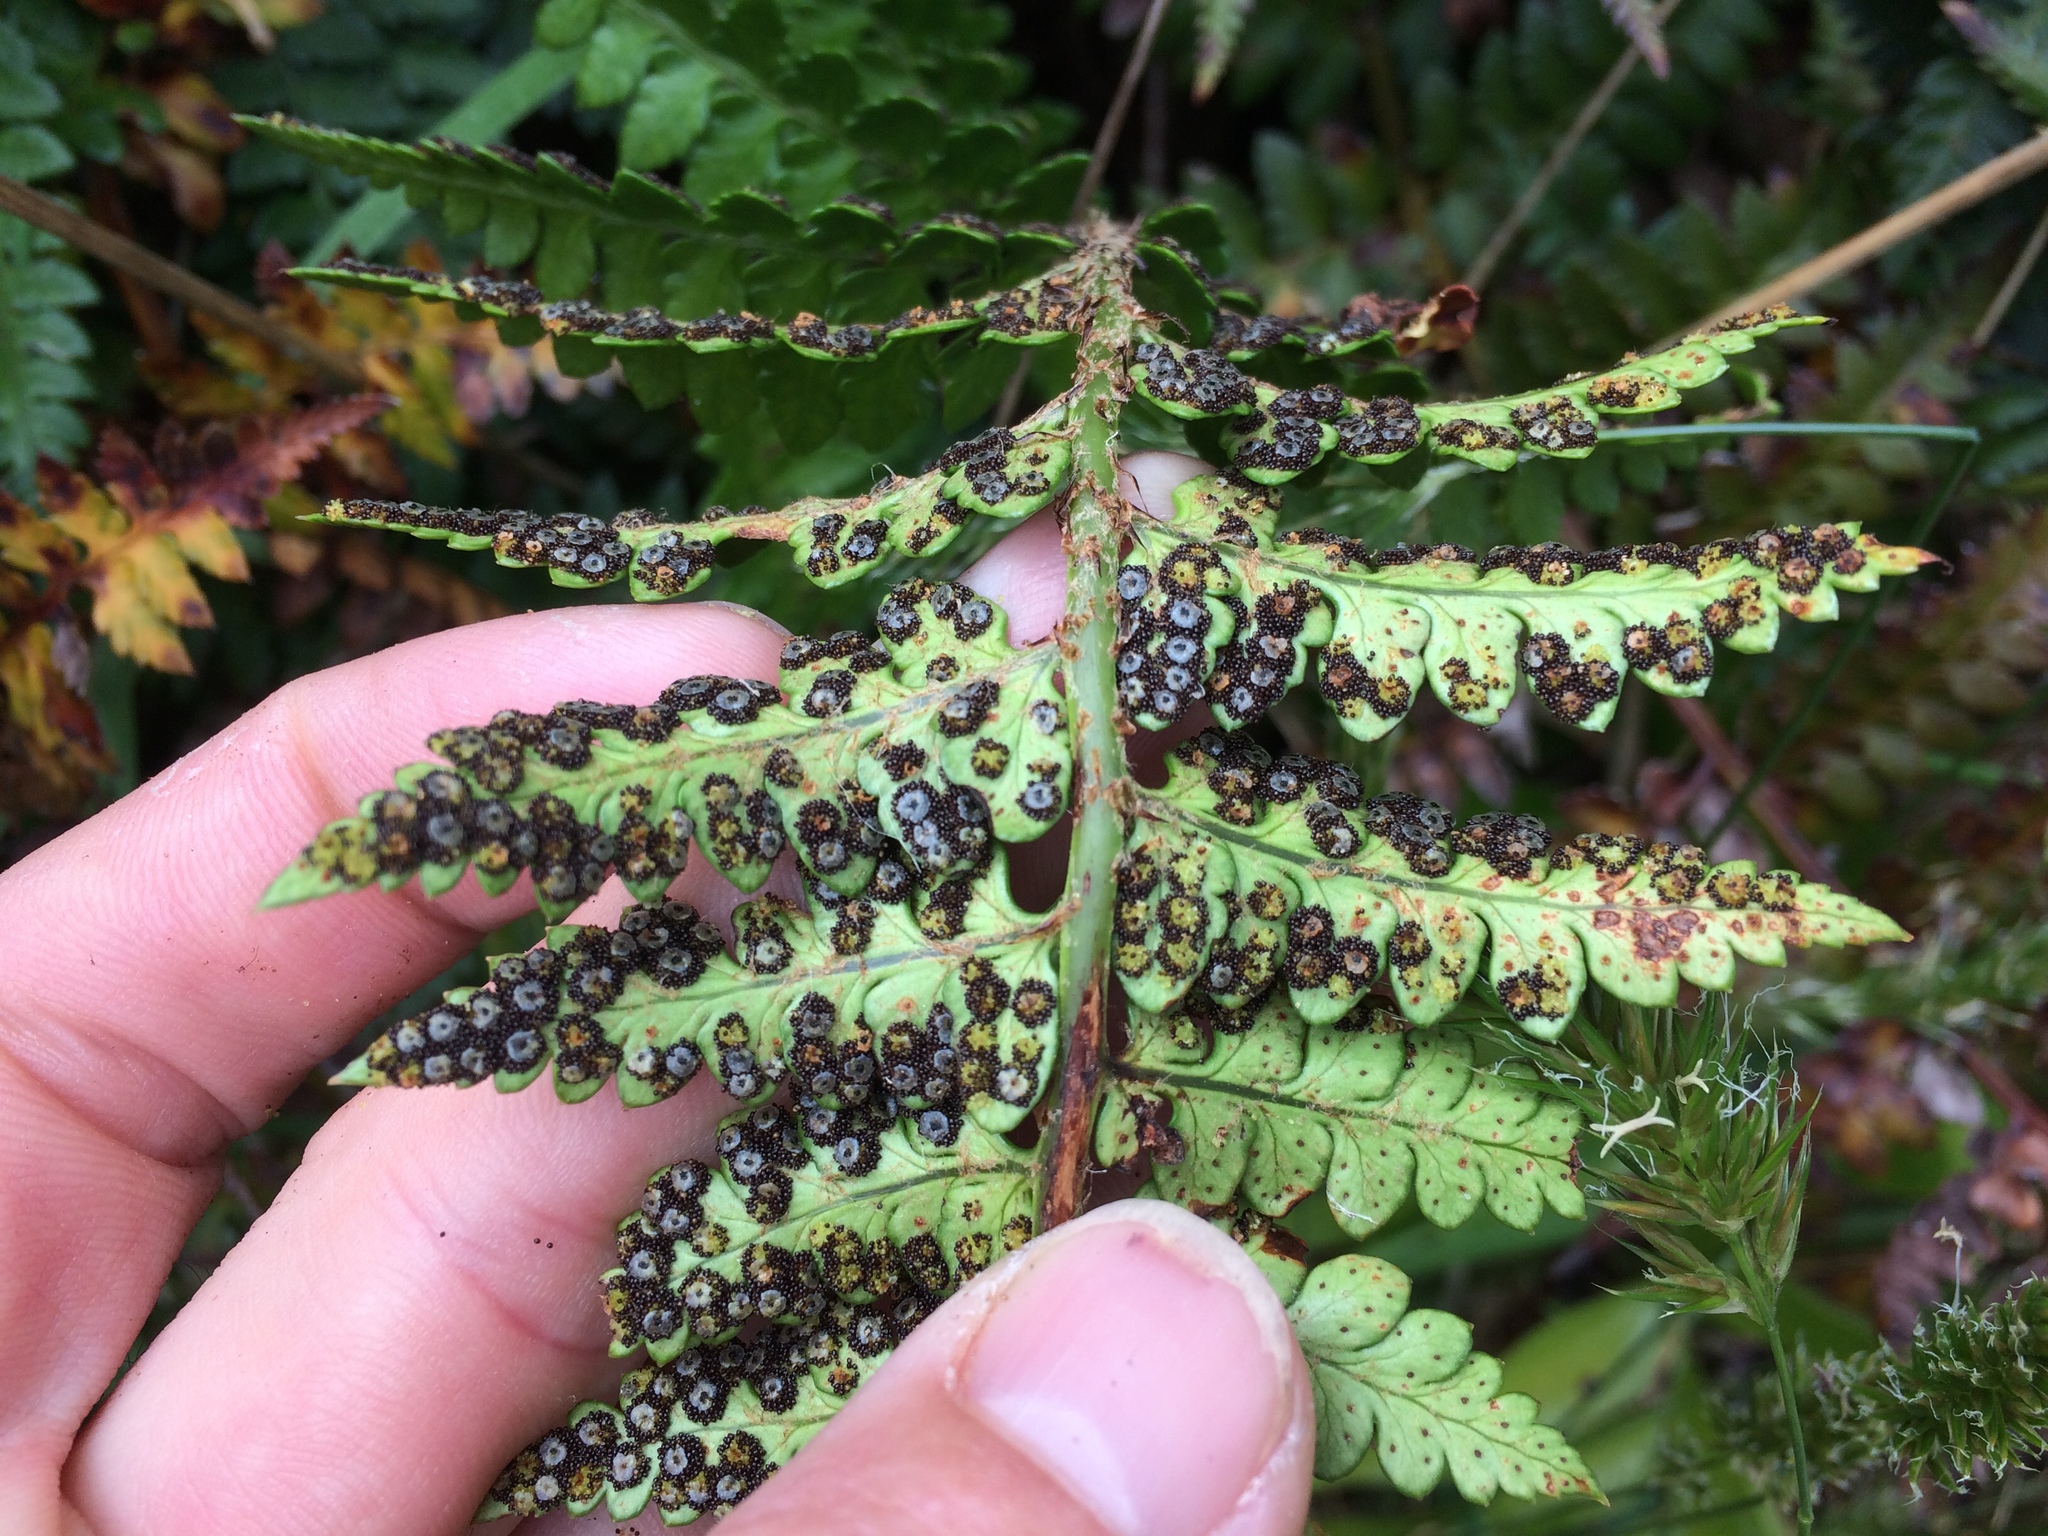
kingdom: Plantae
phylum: Tracheophyta
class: Polypodiopsida
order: Polypodiales
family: Dryopteridaceae
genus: Polystichum
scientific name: Polystichum oculatum
